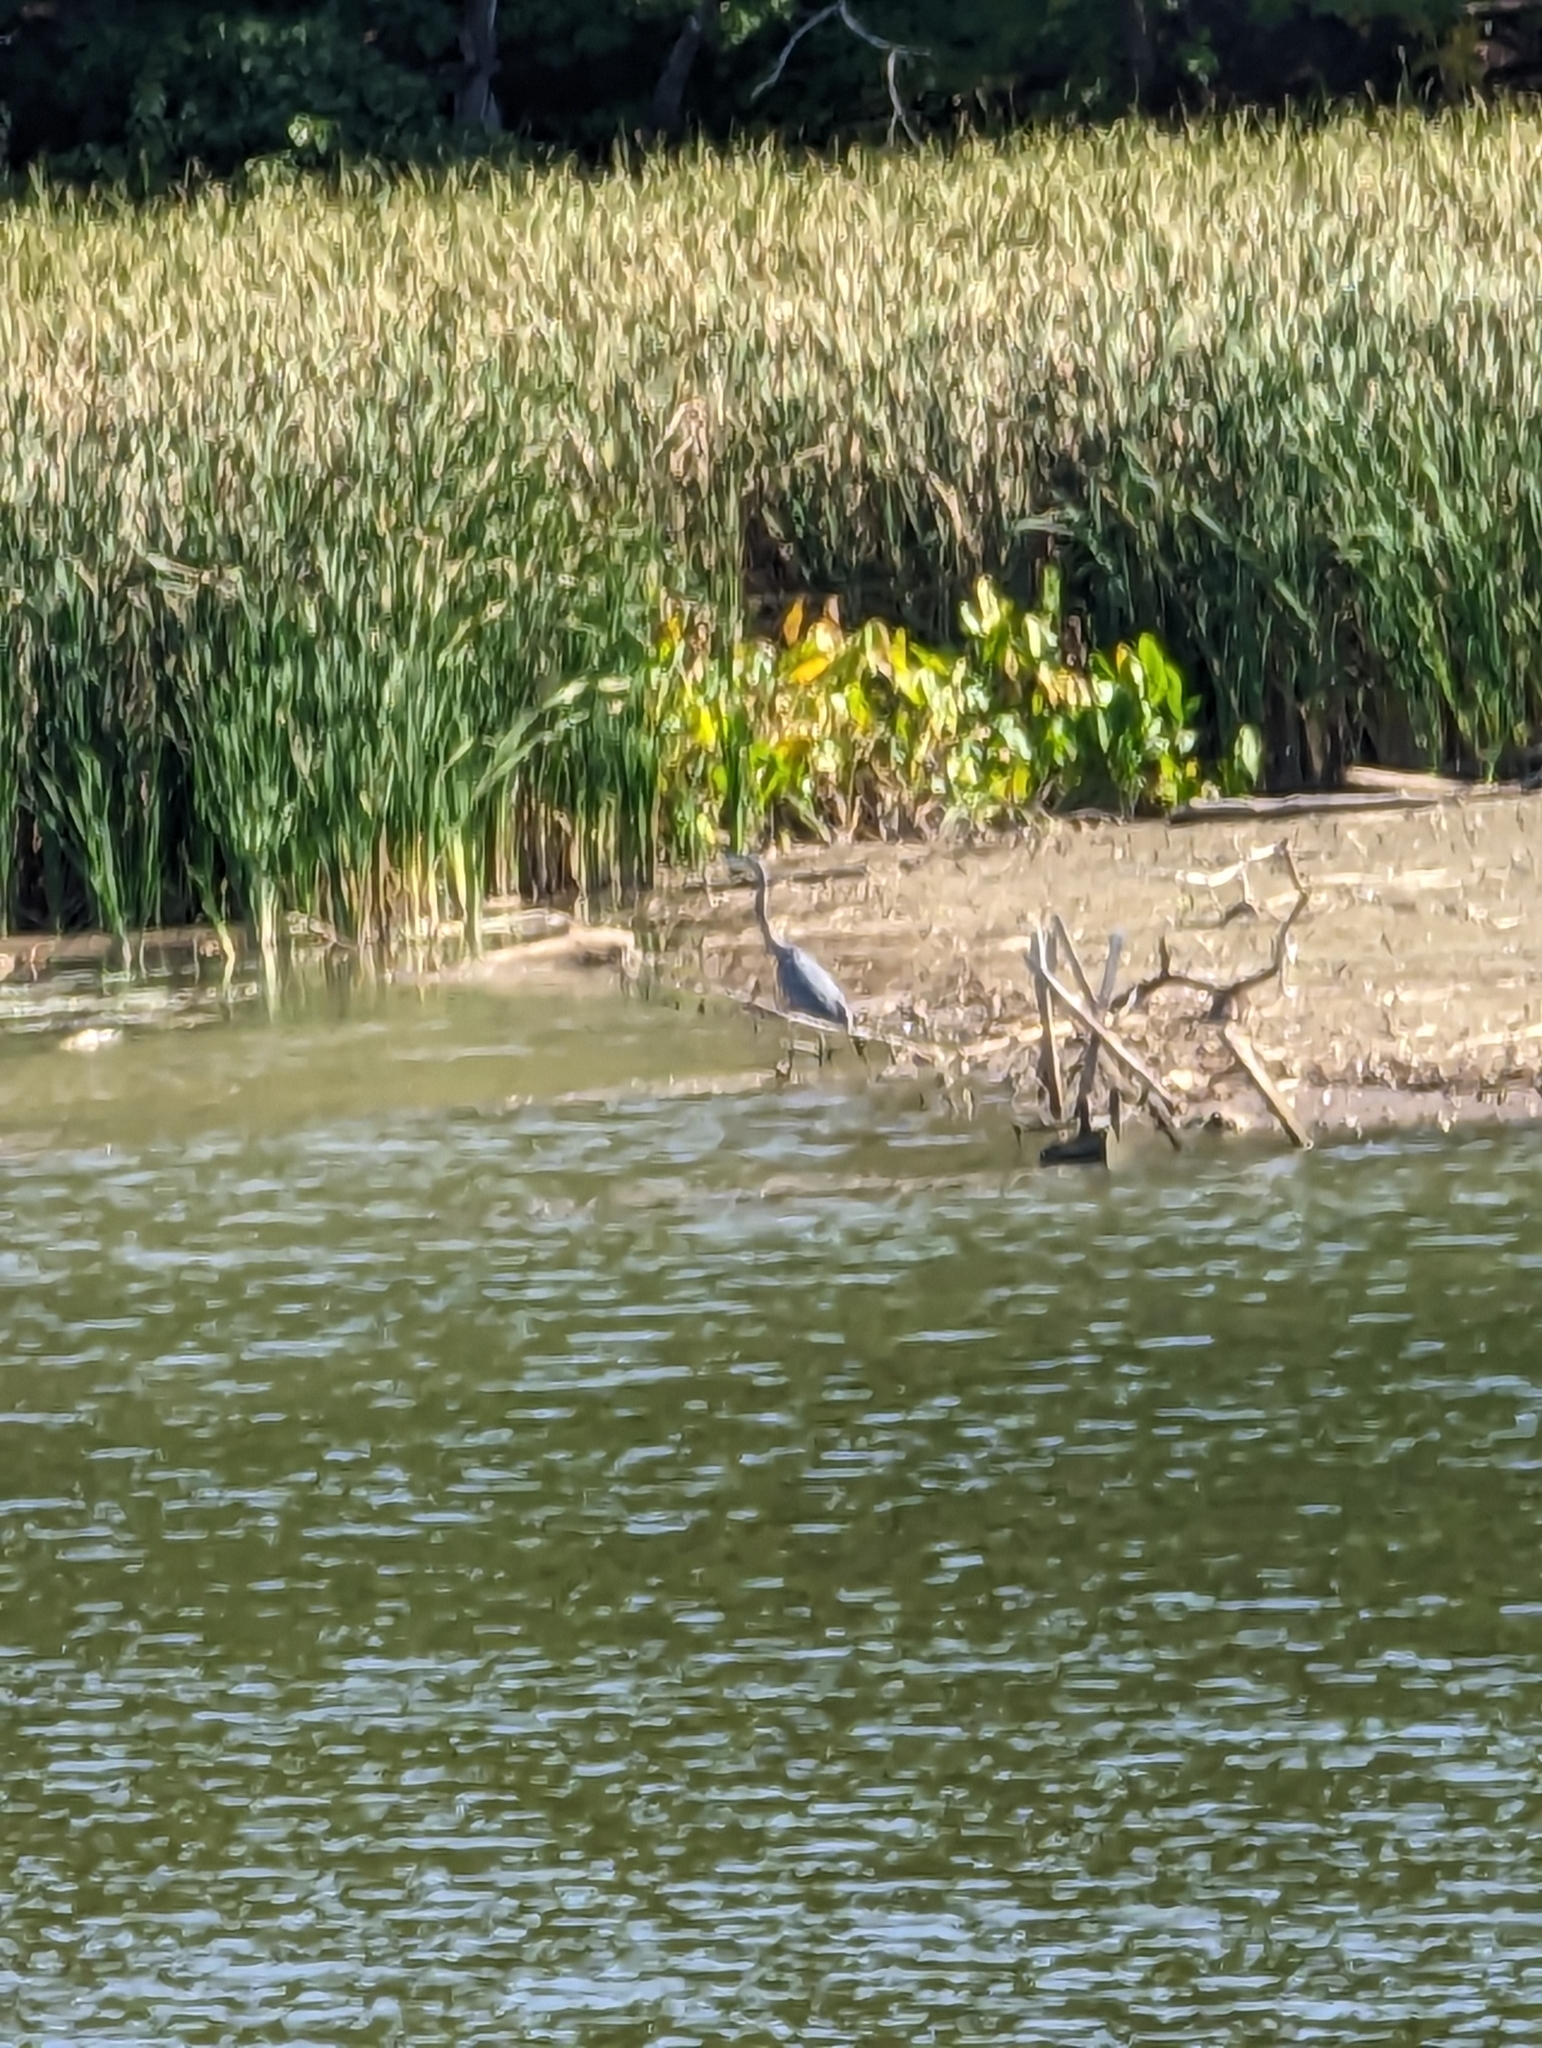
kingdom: Animalia
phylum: Chordata
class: Aves
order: Pelecaniformes
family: Ardeidae
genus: Ardea
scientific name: Ardea herodias
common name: Great blue heron
